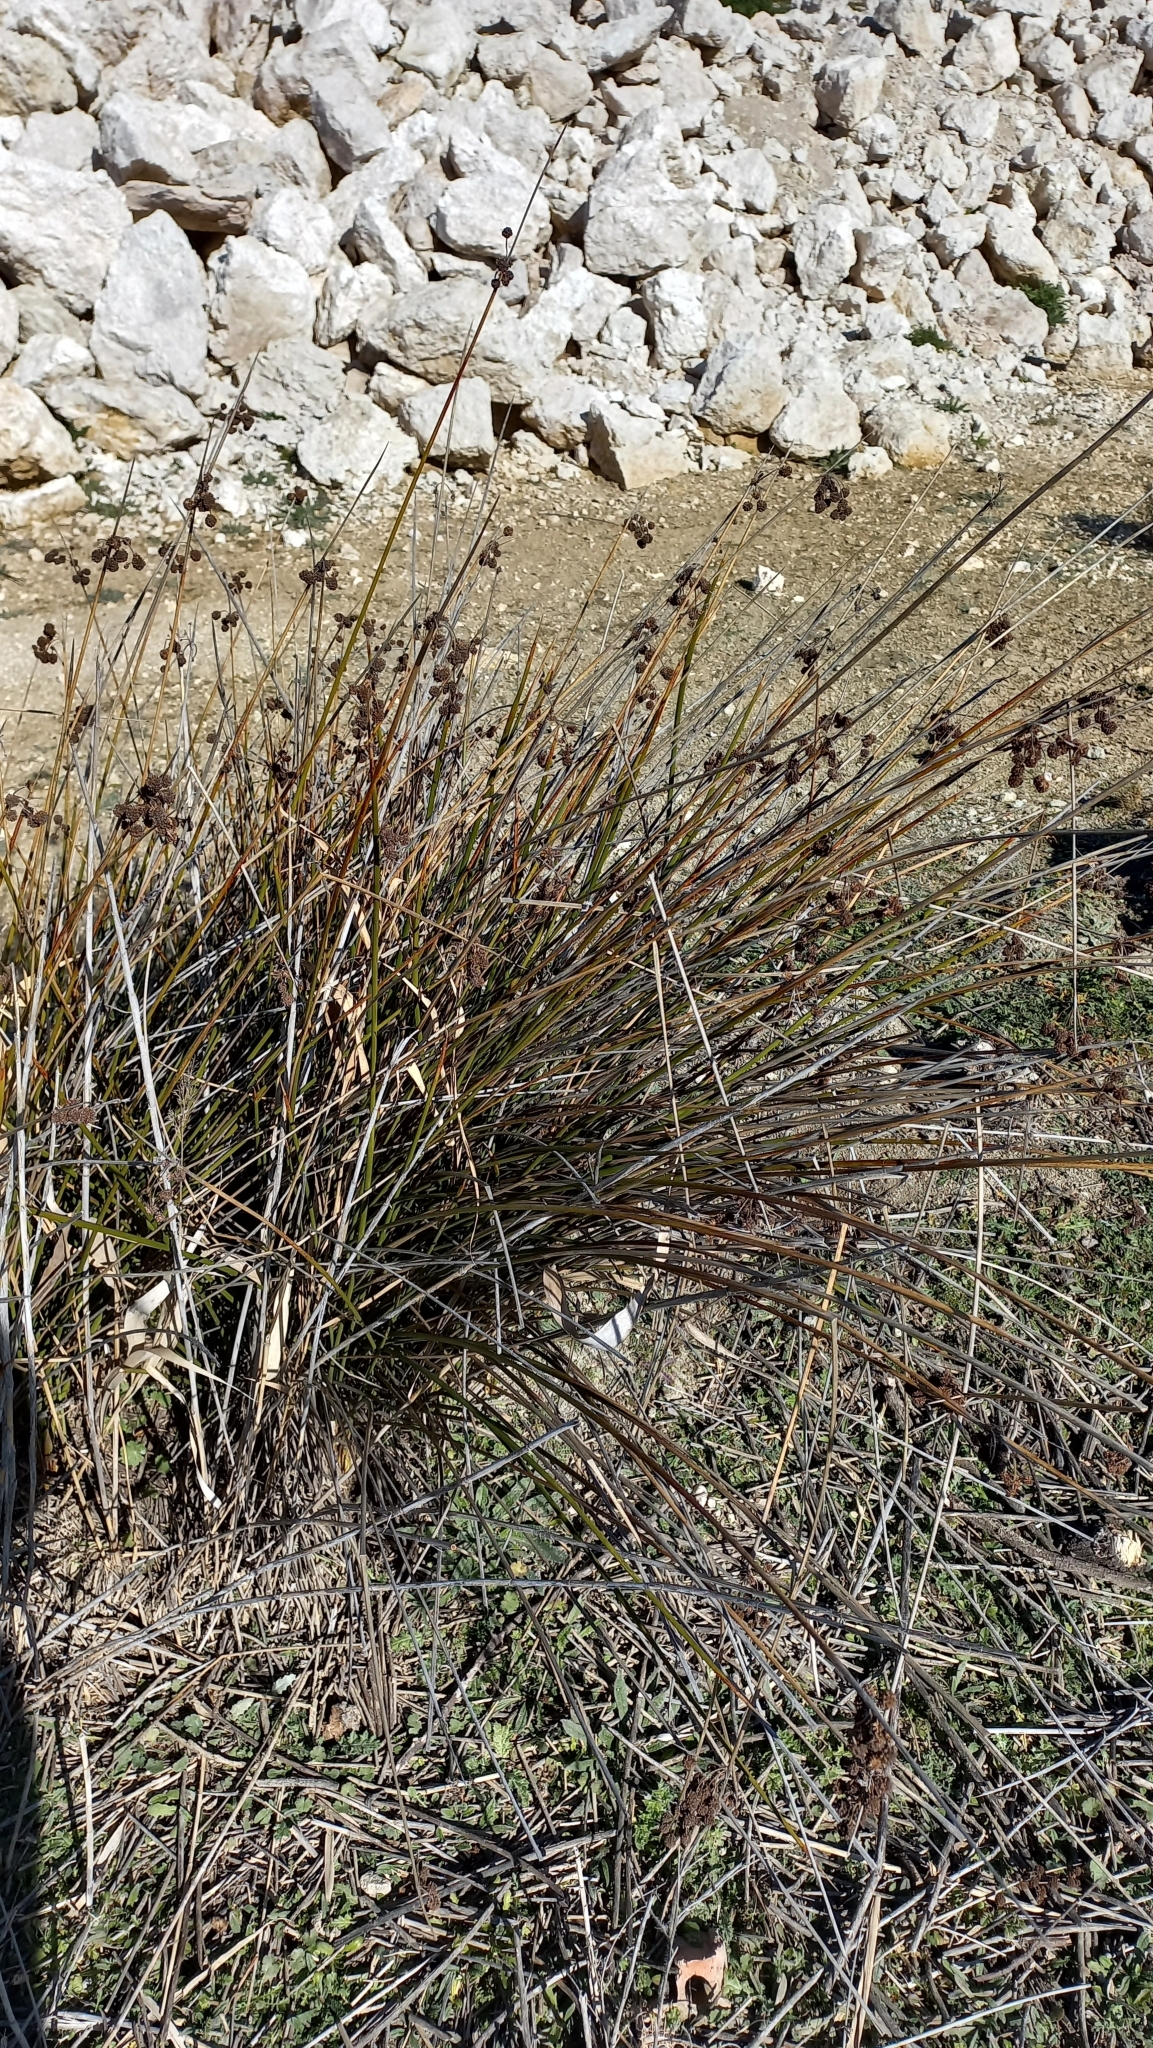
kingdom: Plantae
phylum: Tracheophyta
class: Liliopsida
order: Poales
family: Cyperaceae
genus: Scirpoides
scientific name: Scirpoides holoschoenus
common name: Round-headed club-rush
